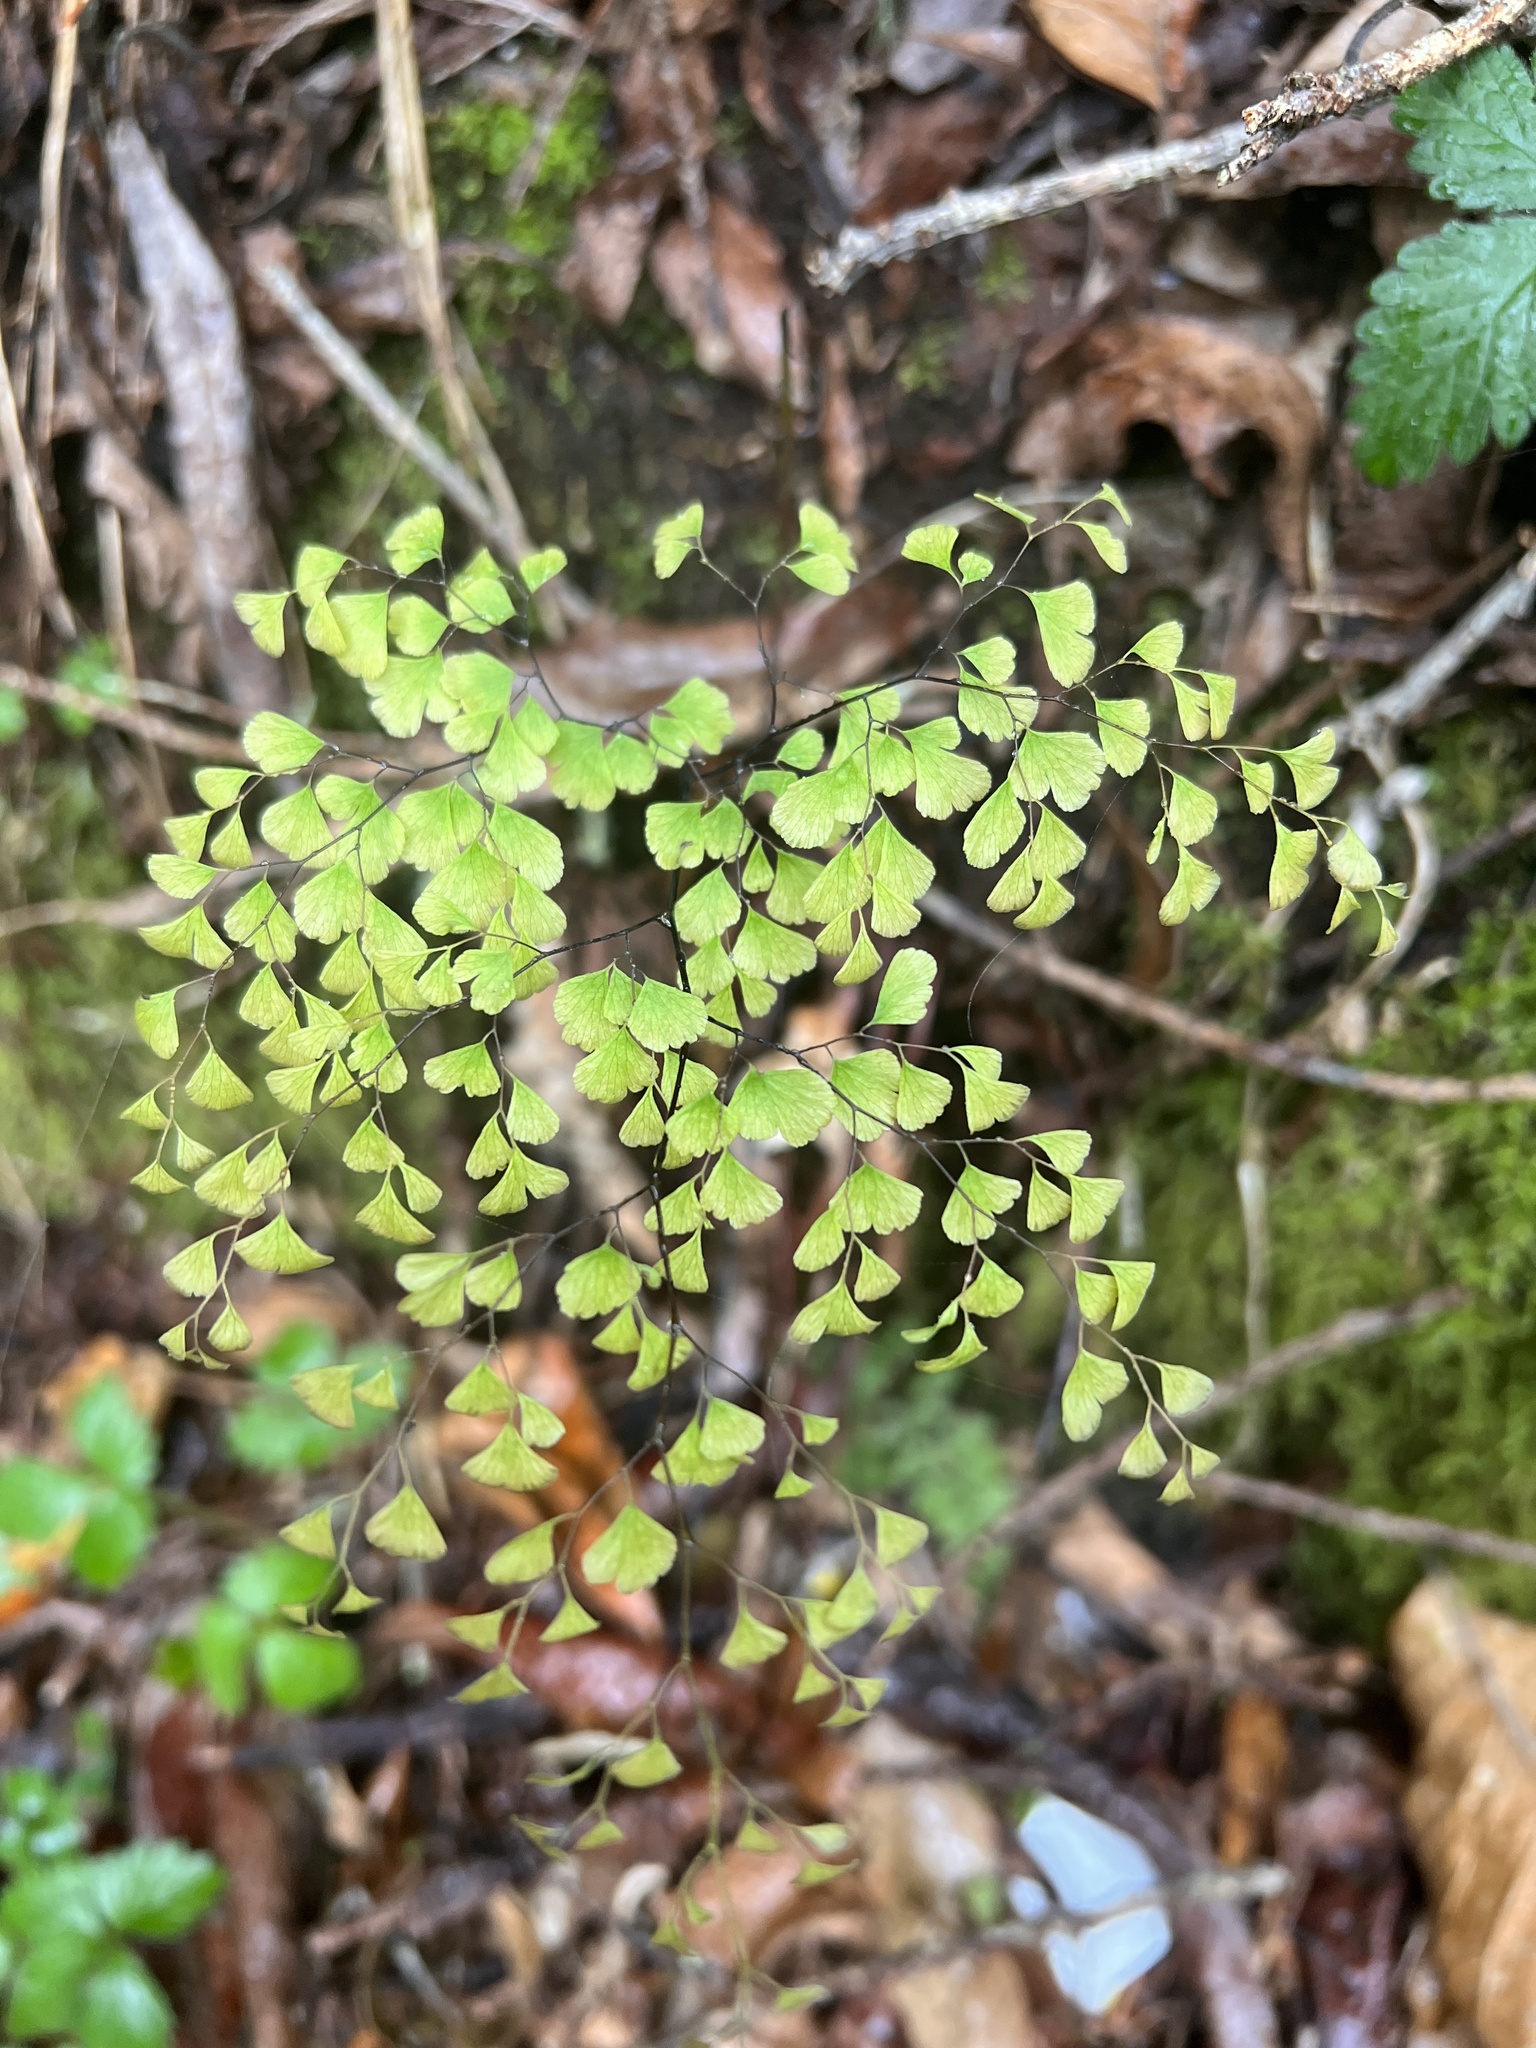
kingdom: Plantae
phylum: Tracheophyta
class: Polypodiopsida
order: Polypodiales
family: Pteridaceae
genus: Adiantum
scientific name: Adiantum raddianum
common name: Delta maidenhair fern
